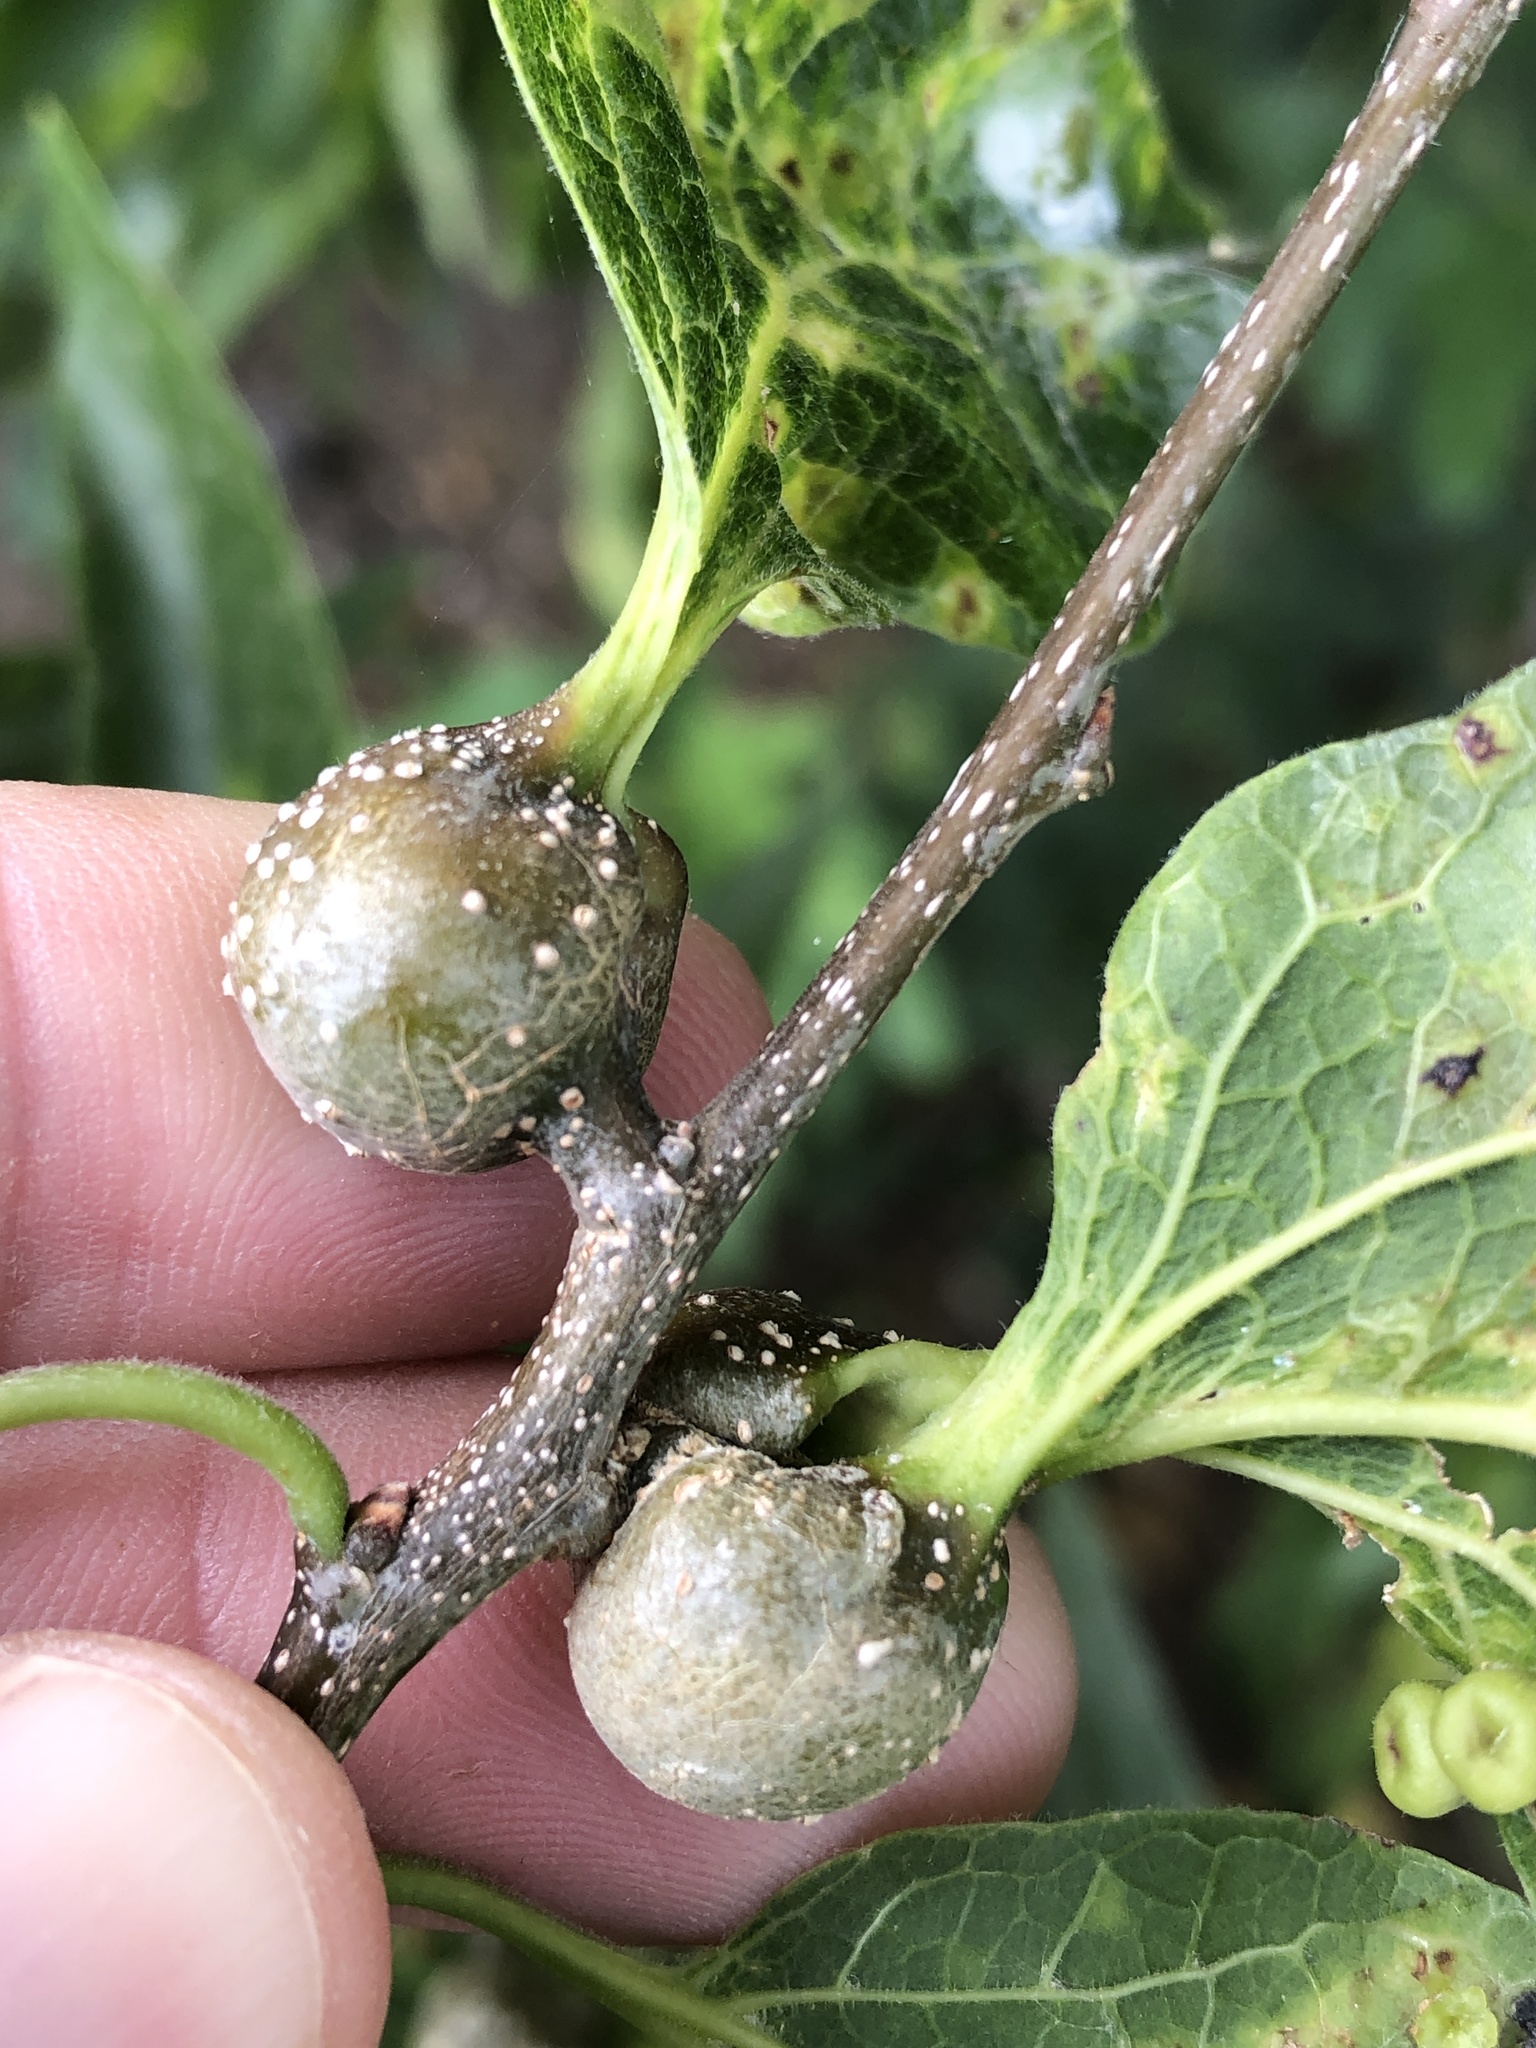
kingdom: Animalia
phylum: Arthropoda
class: Insecta
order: Hemiptera
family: Aphalaridae
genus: Pachypsylla
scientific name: Pachypsylla venusta
